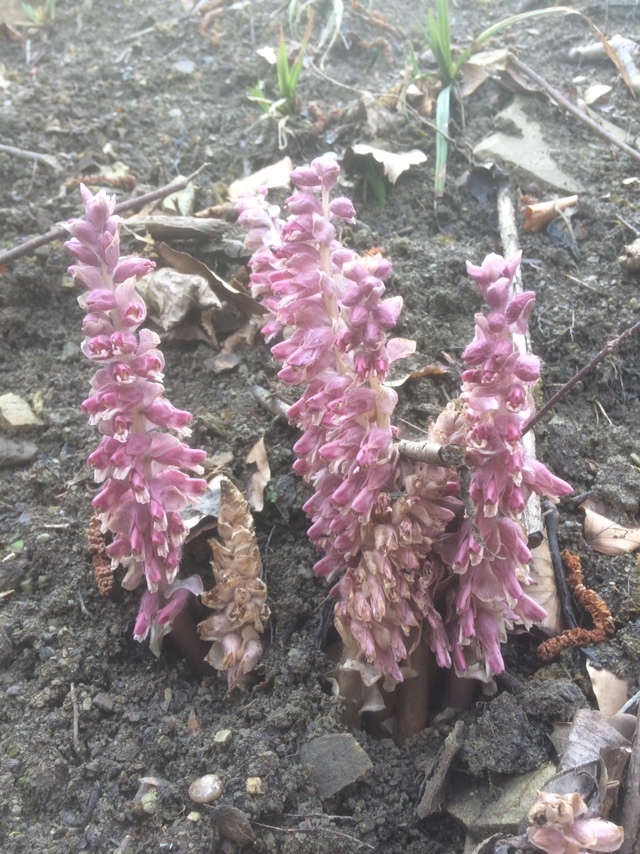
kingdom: Plantae
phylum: Tracheophyta
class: Magnoliopsida
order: Lamiales
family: Orobanchaceae
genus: Lathraea
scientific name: Lathraea squamaria
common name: Toothwort
